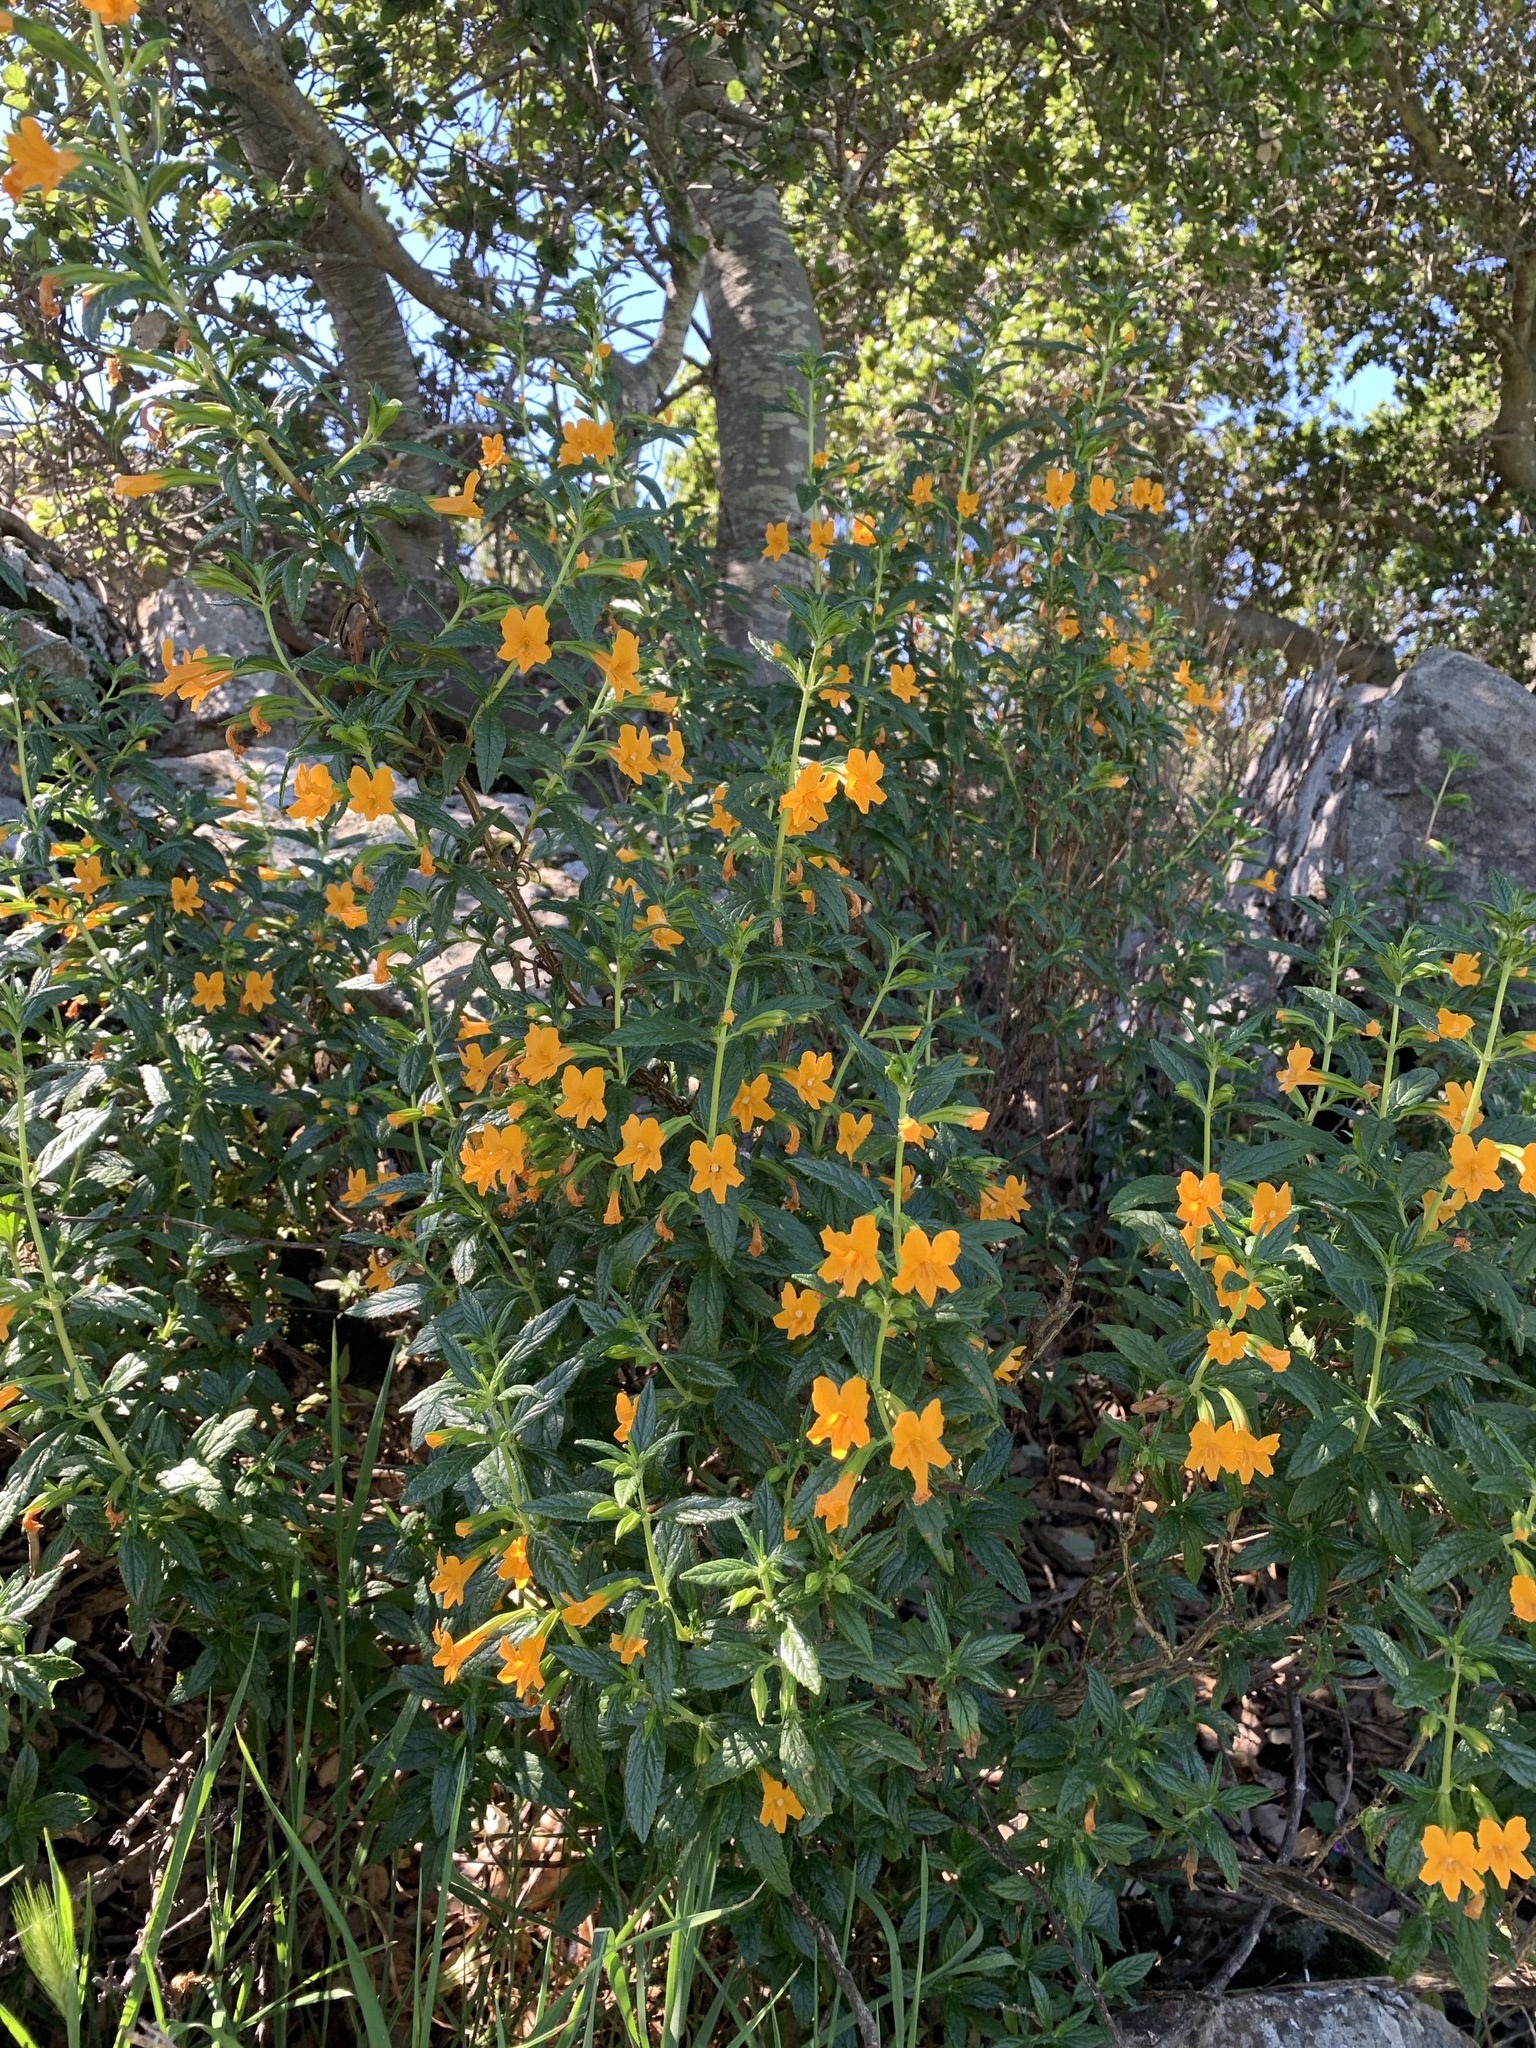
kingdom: Plantae
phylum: Tracheophyta
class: Magnoliopsida
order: Lamiales
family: Phrymaceae
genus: Diplacus
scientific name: Diplacus aurantiacus
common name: Bush monkey-flower
